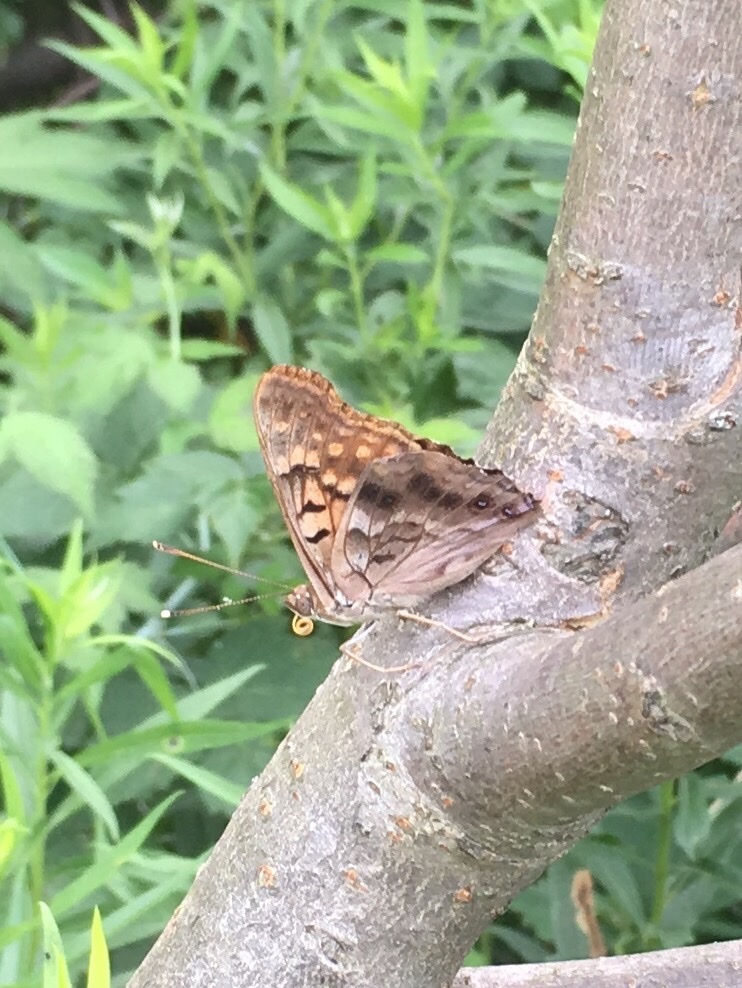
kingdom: Animalia
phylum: Arthropoda
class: Insecta
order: Lepidoptera
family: Nymphalidae
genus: Asterocampa
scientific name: Asterocampa clyton
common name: Tawny emperor
